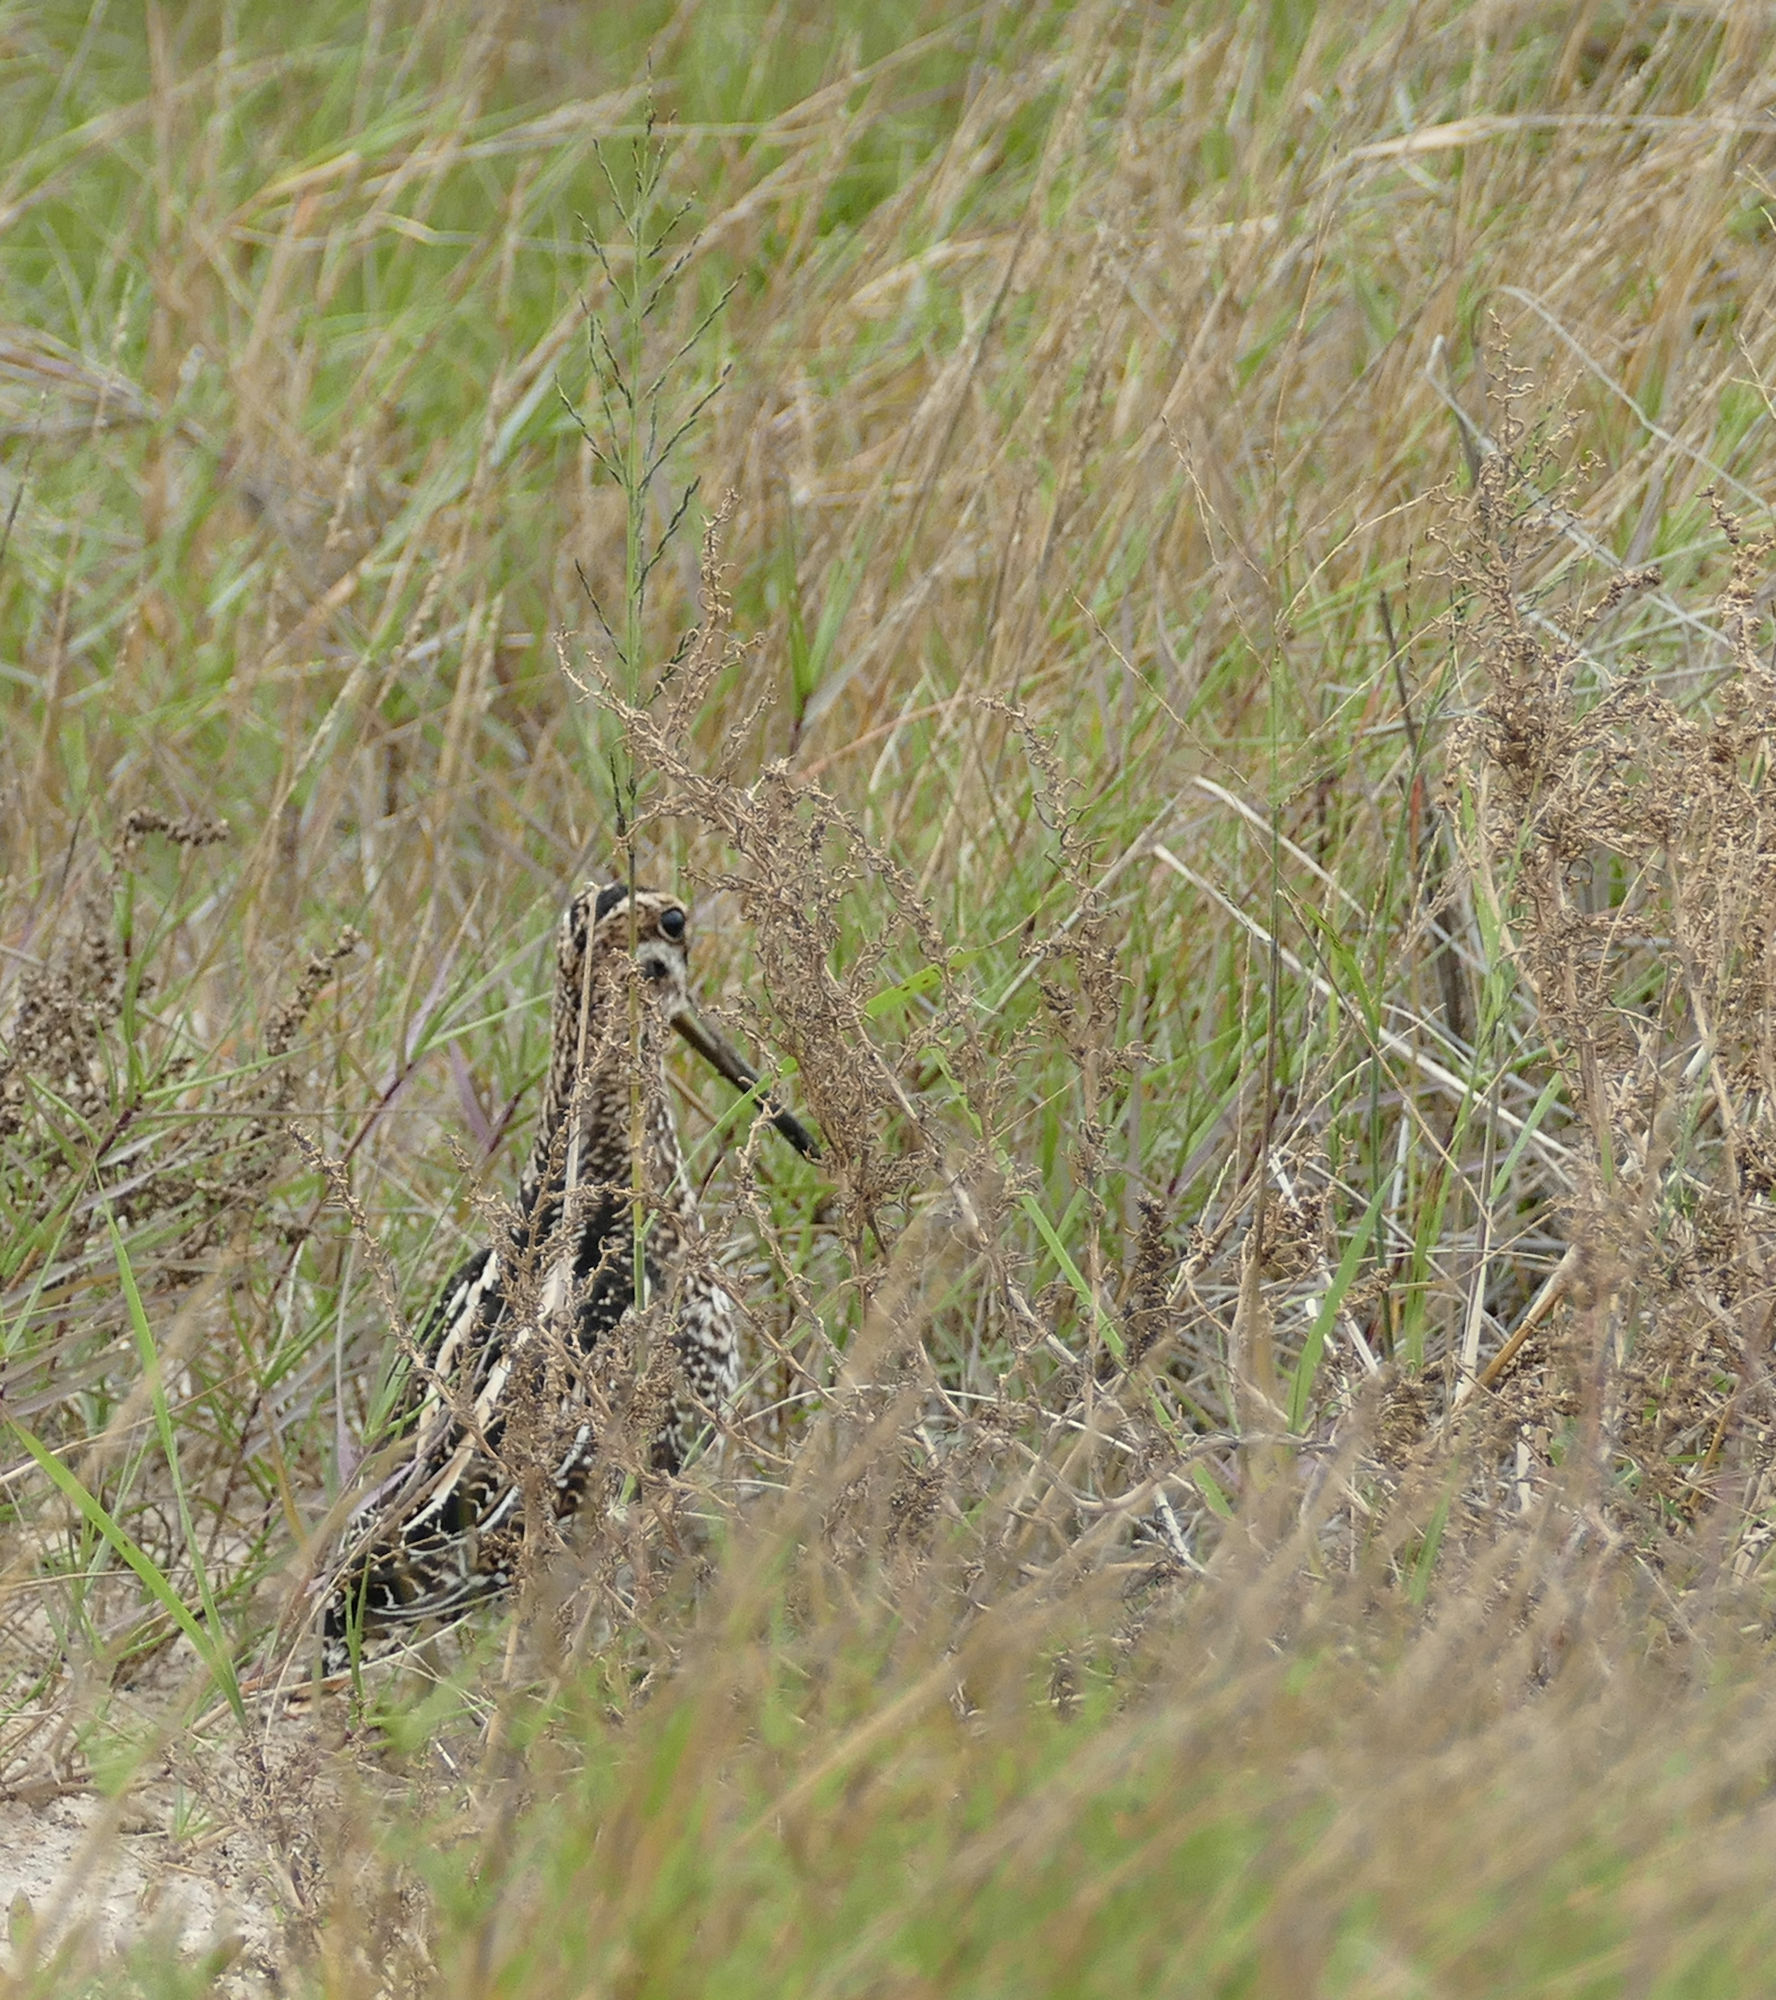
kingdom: Animalia
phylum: Chordata
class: Aves
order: Charadriiformes
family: Scolopacidae
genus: Gallinago
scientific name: Gallinago delicata
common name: Wilson's snipe
